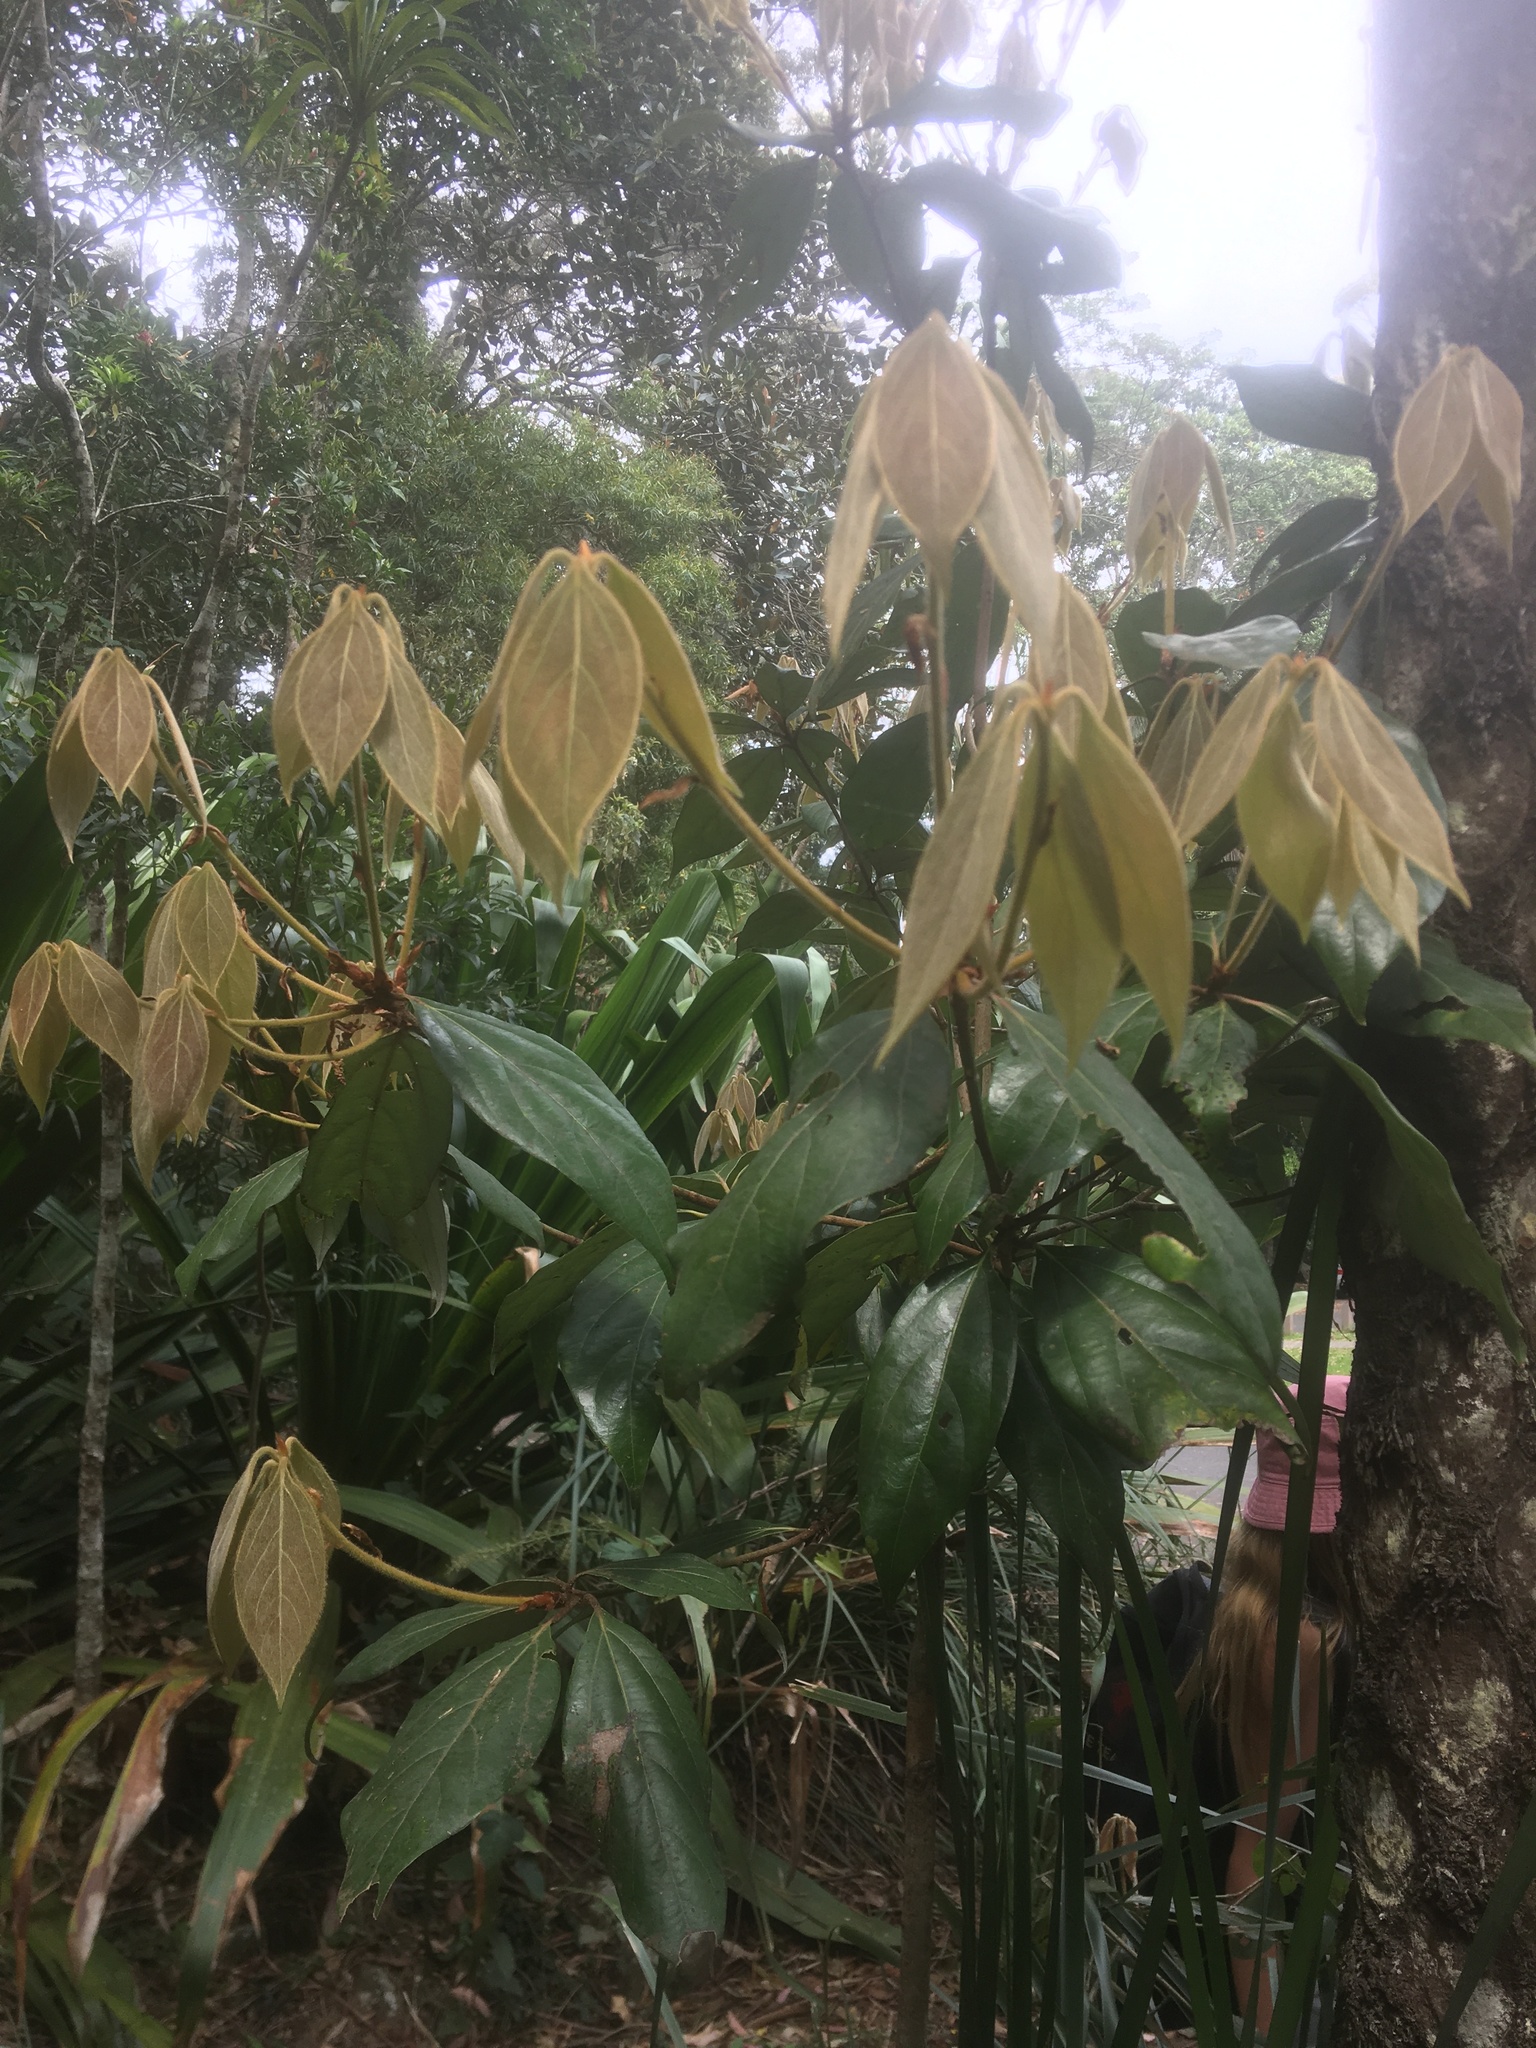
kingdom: Plantae
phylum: Tracheophyta
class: Magnoliopsida
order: Laurales
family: Lauraceae
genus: Neolitsea
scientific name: Neolitsea dealbata
